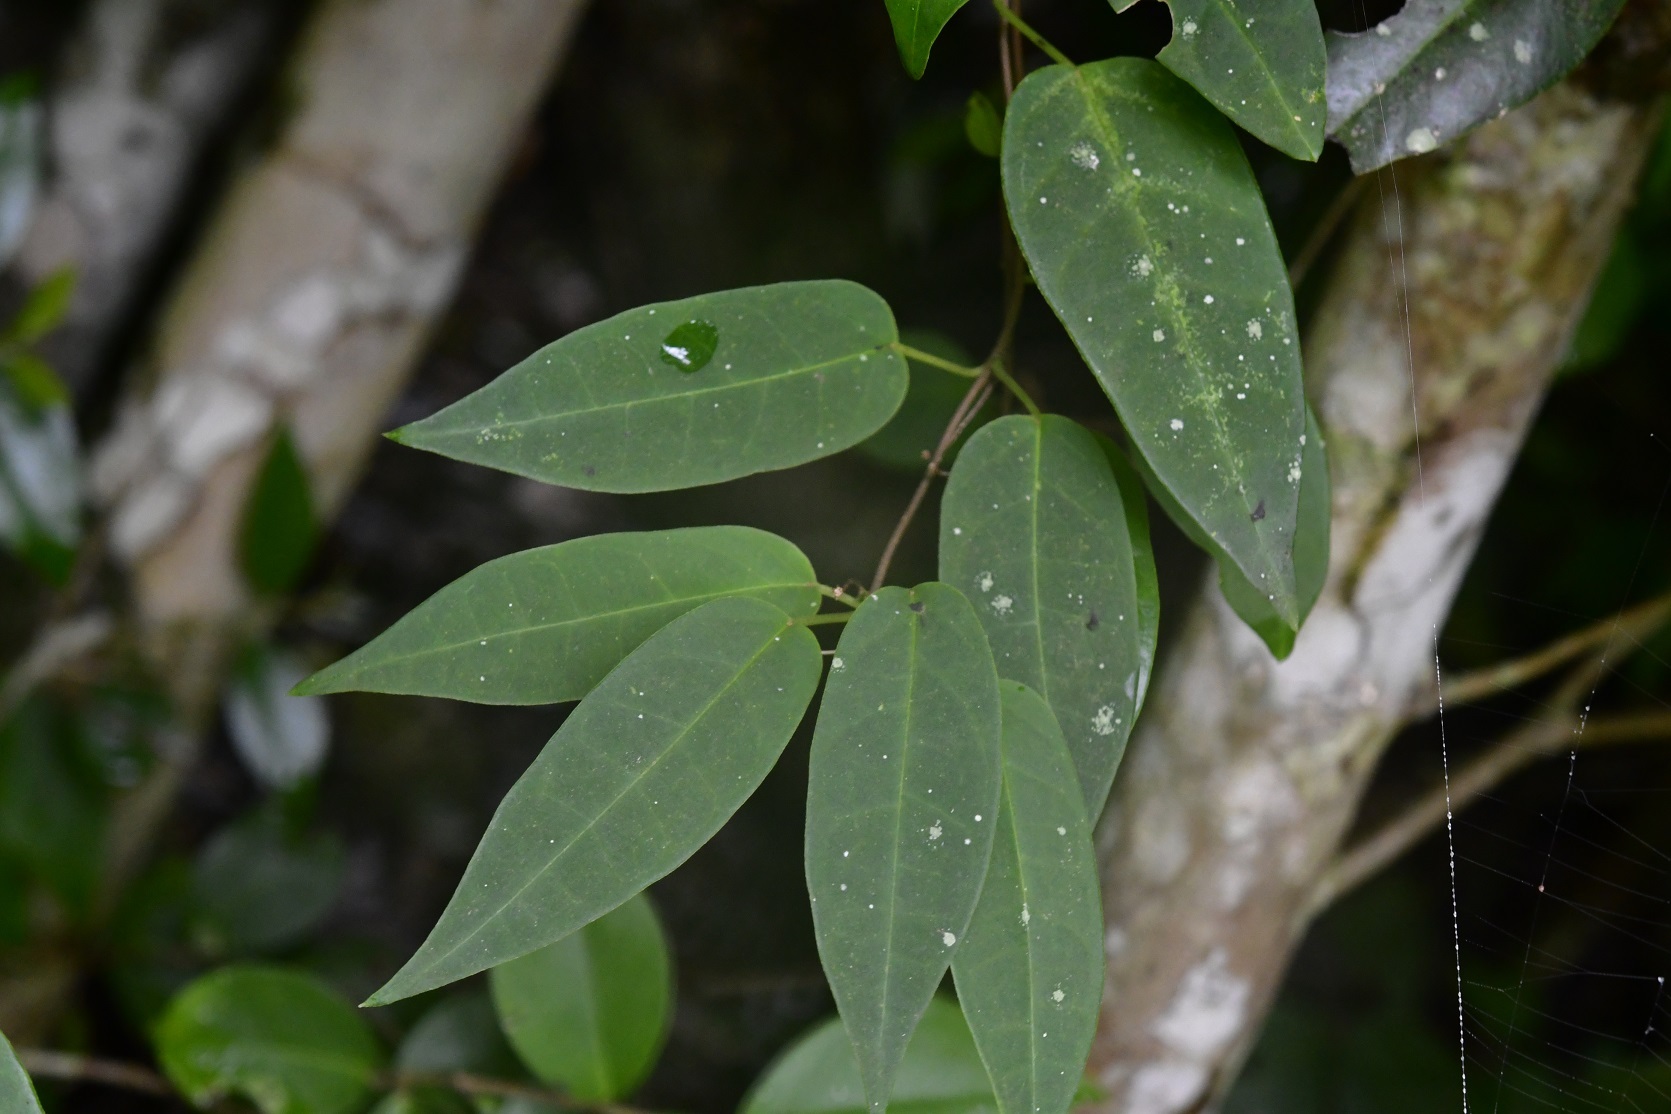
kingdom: Plantae
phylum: Tracheophyta
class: Magnoliopsida
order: Gentianales
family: Apocynaceae
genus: Ruehssia
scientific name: Ruehssia sumiderensis
